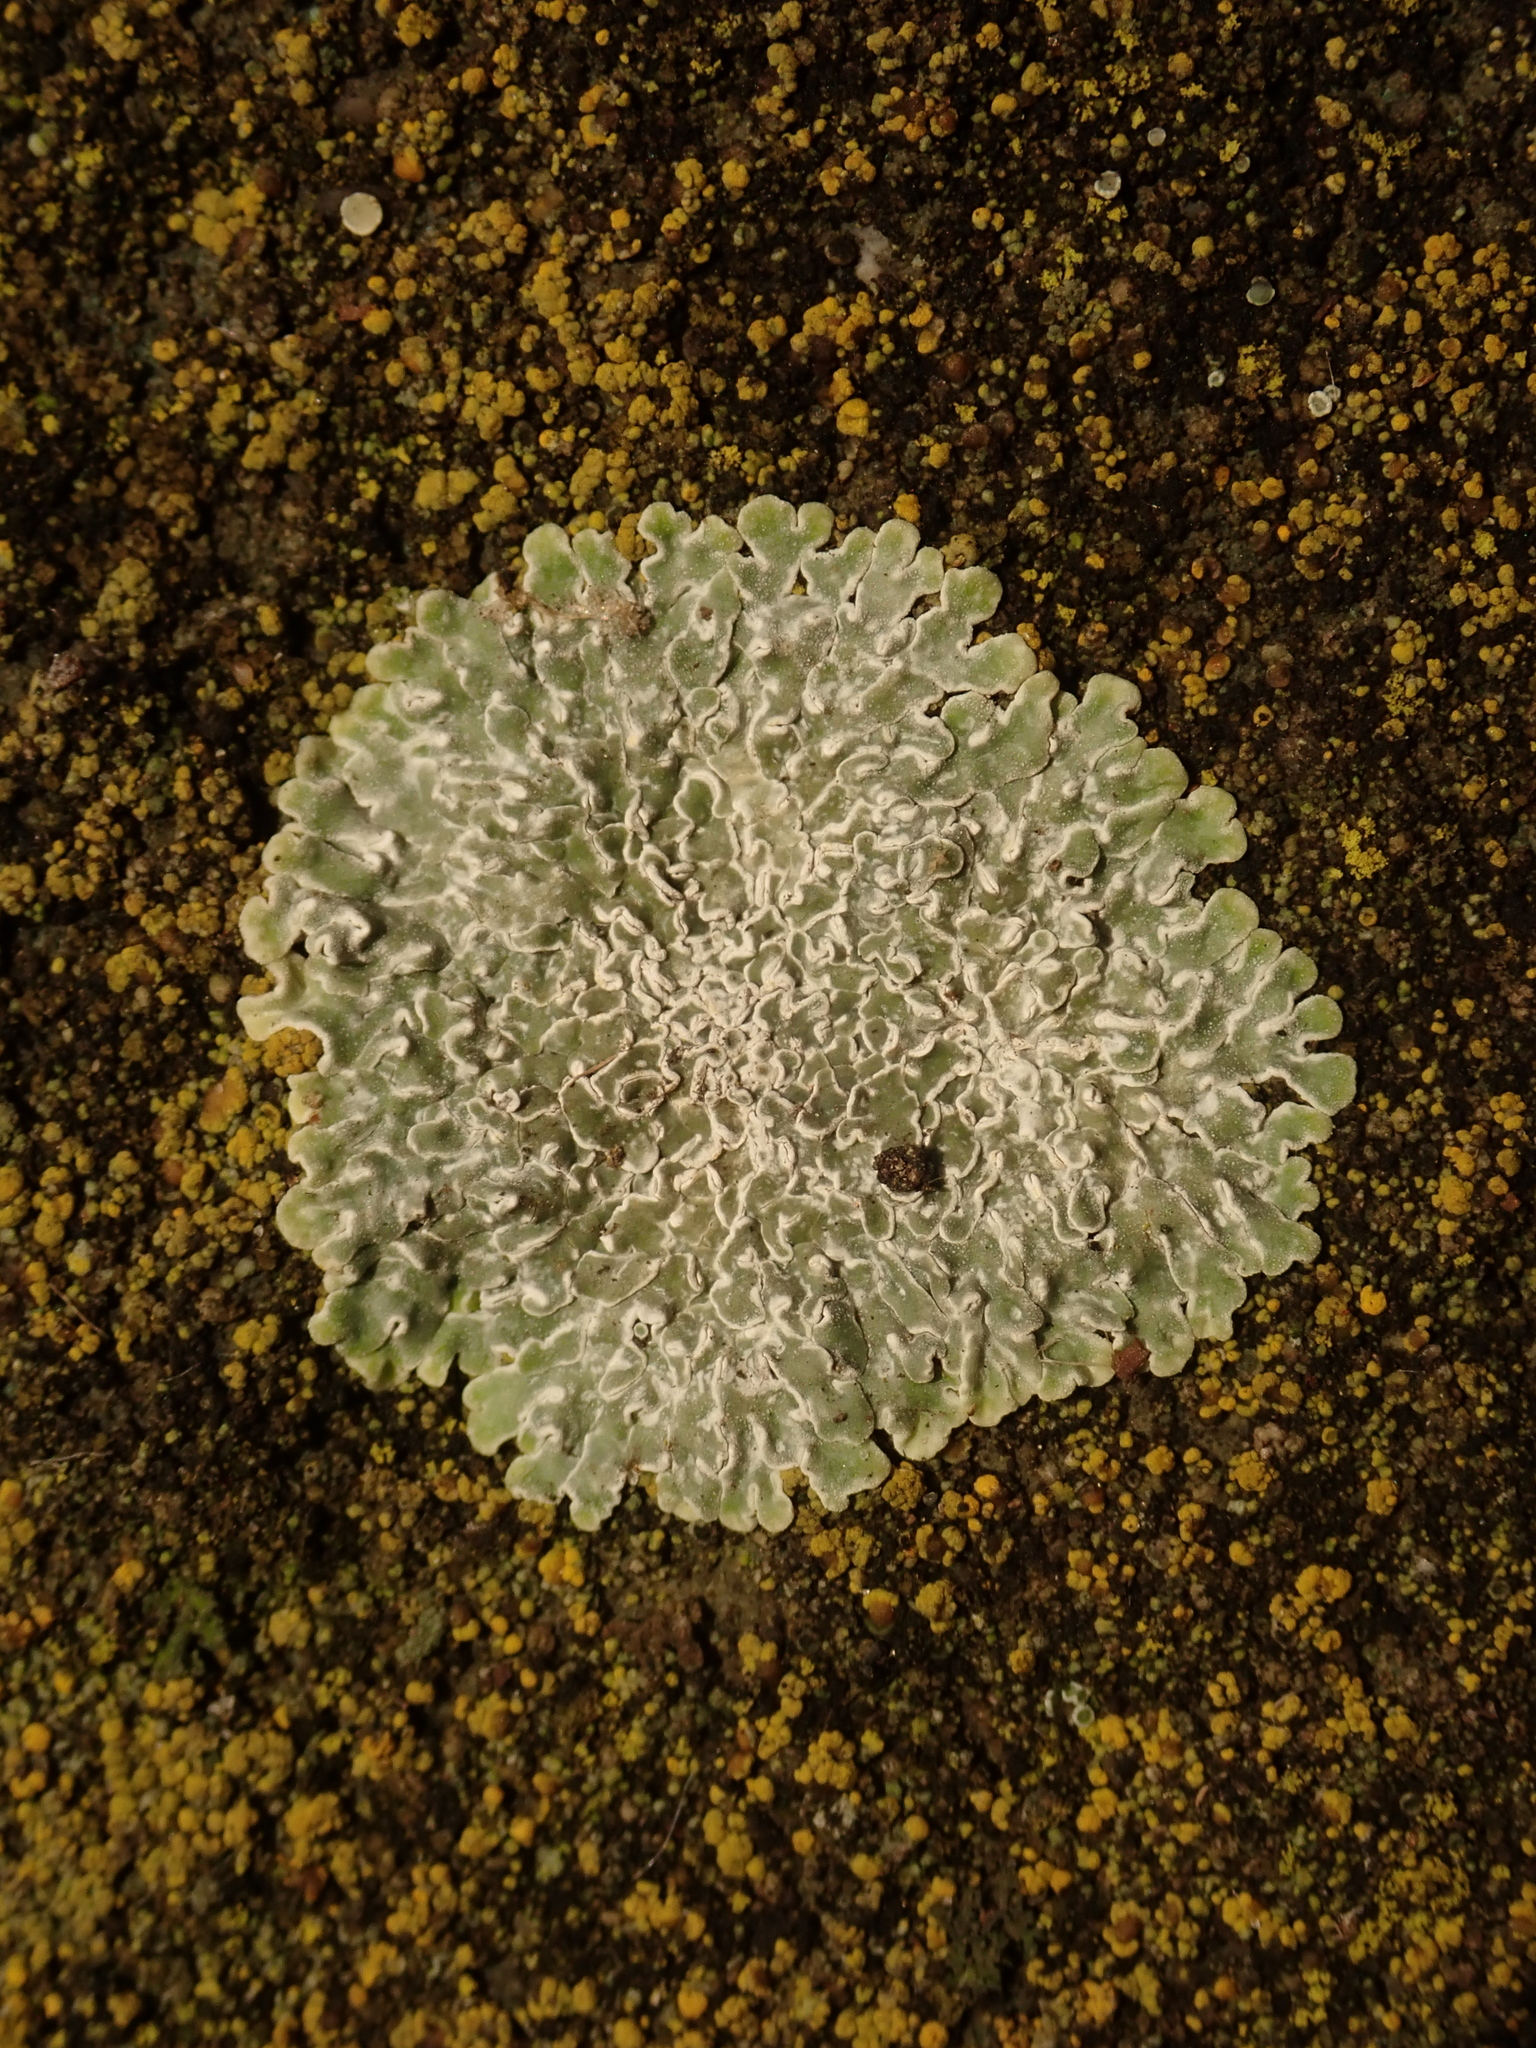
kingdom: Fungi
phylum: Ascomycota
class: Lecanoromycetes
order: Lecanorales
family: Lecanoraceae
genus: Protoparmeliopsis
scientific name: Protoparmeliopsis muralis
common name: Stonewall rim lichen
